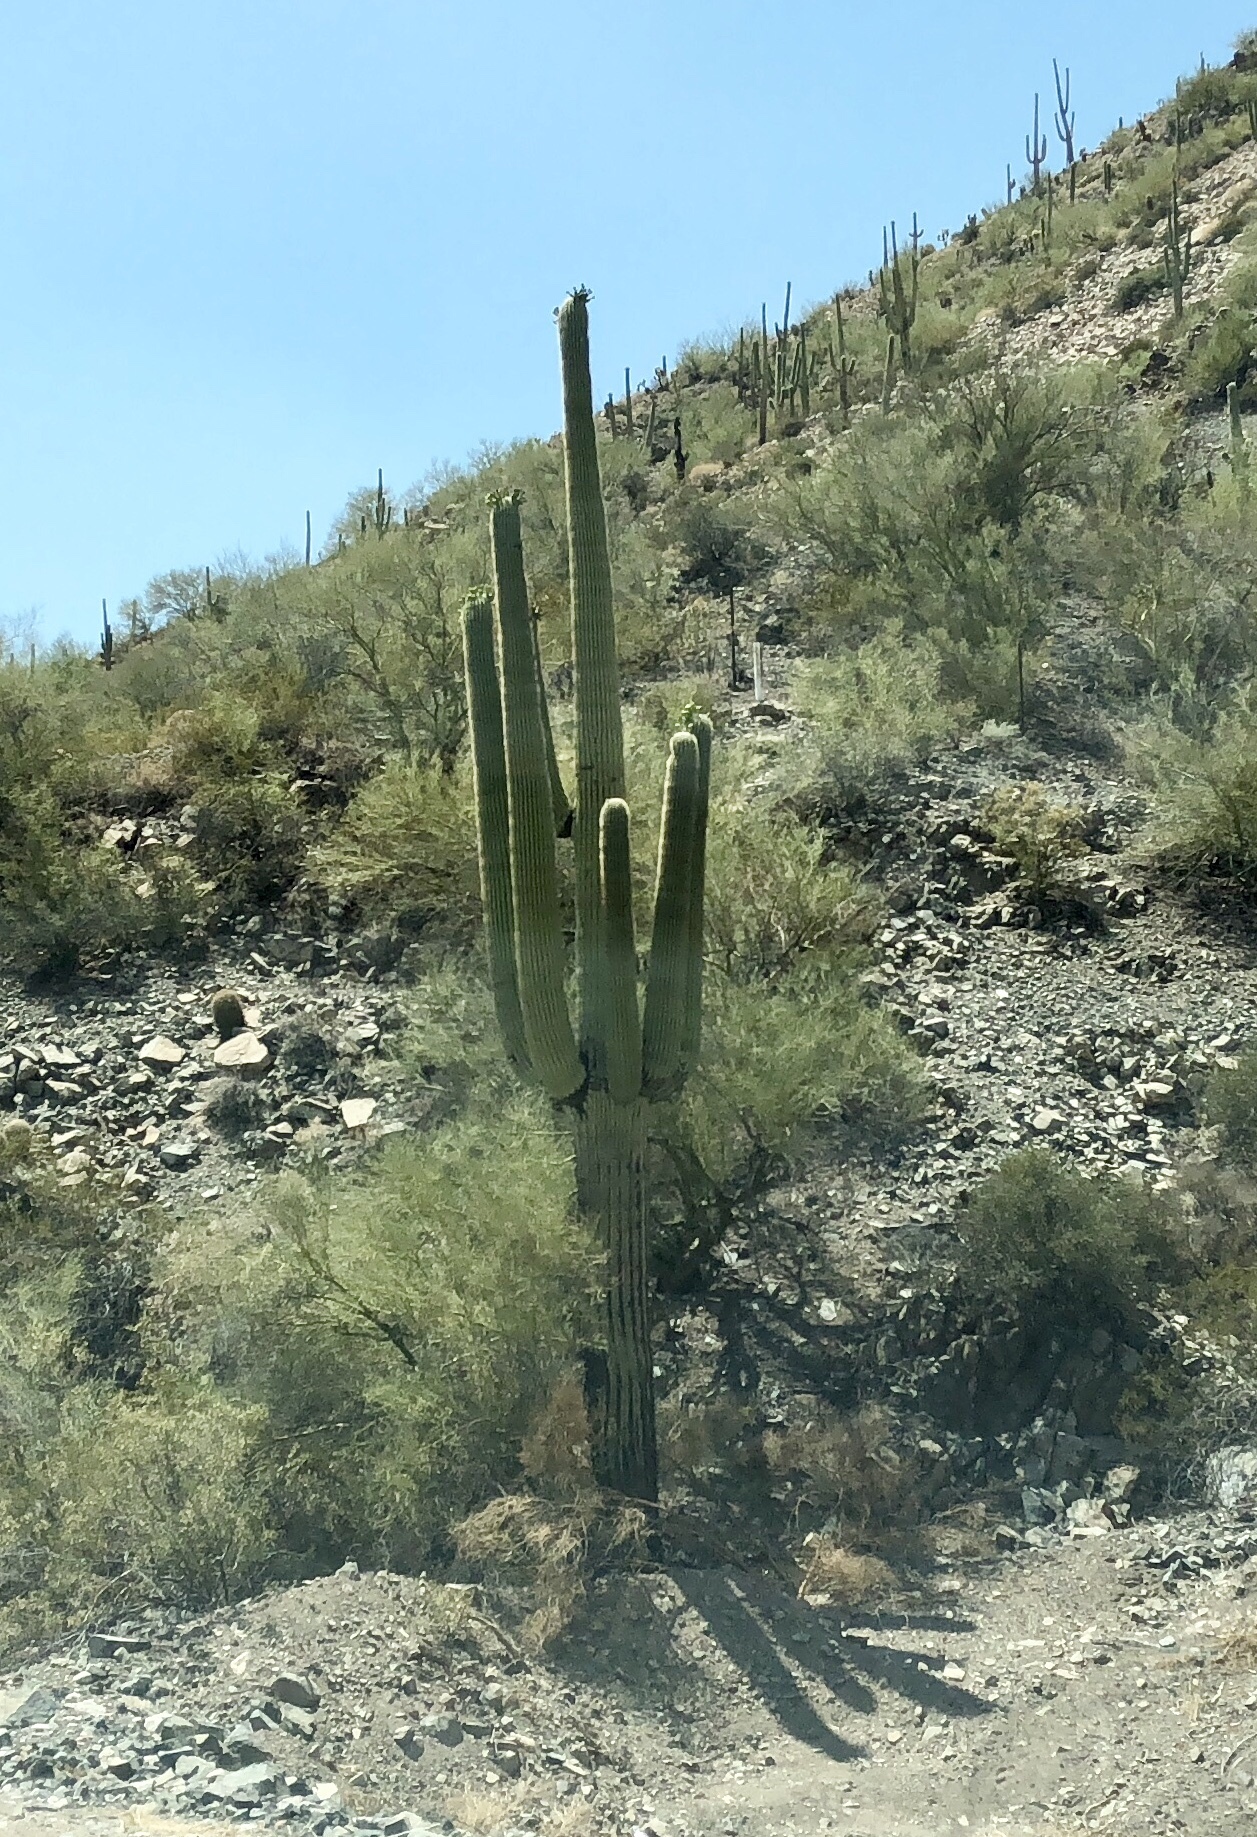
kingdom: Plantae
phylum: Tracheophyta
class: Magnoliopsida
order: Caryophyllales
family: Cactaceae
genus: Carnegiea
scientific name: Carnegiea gigantea
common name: Saguaro
